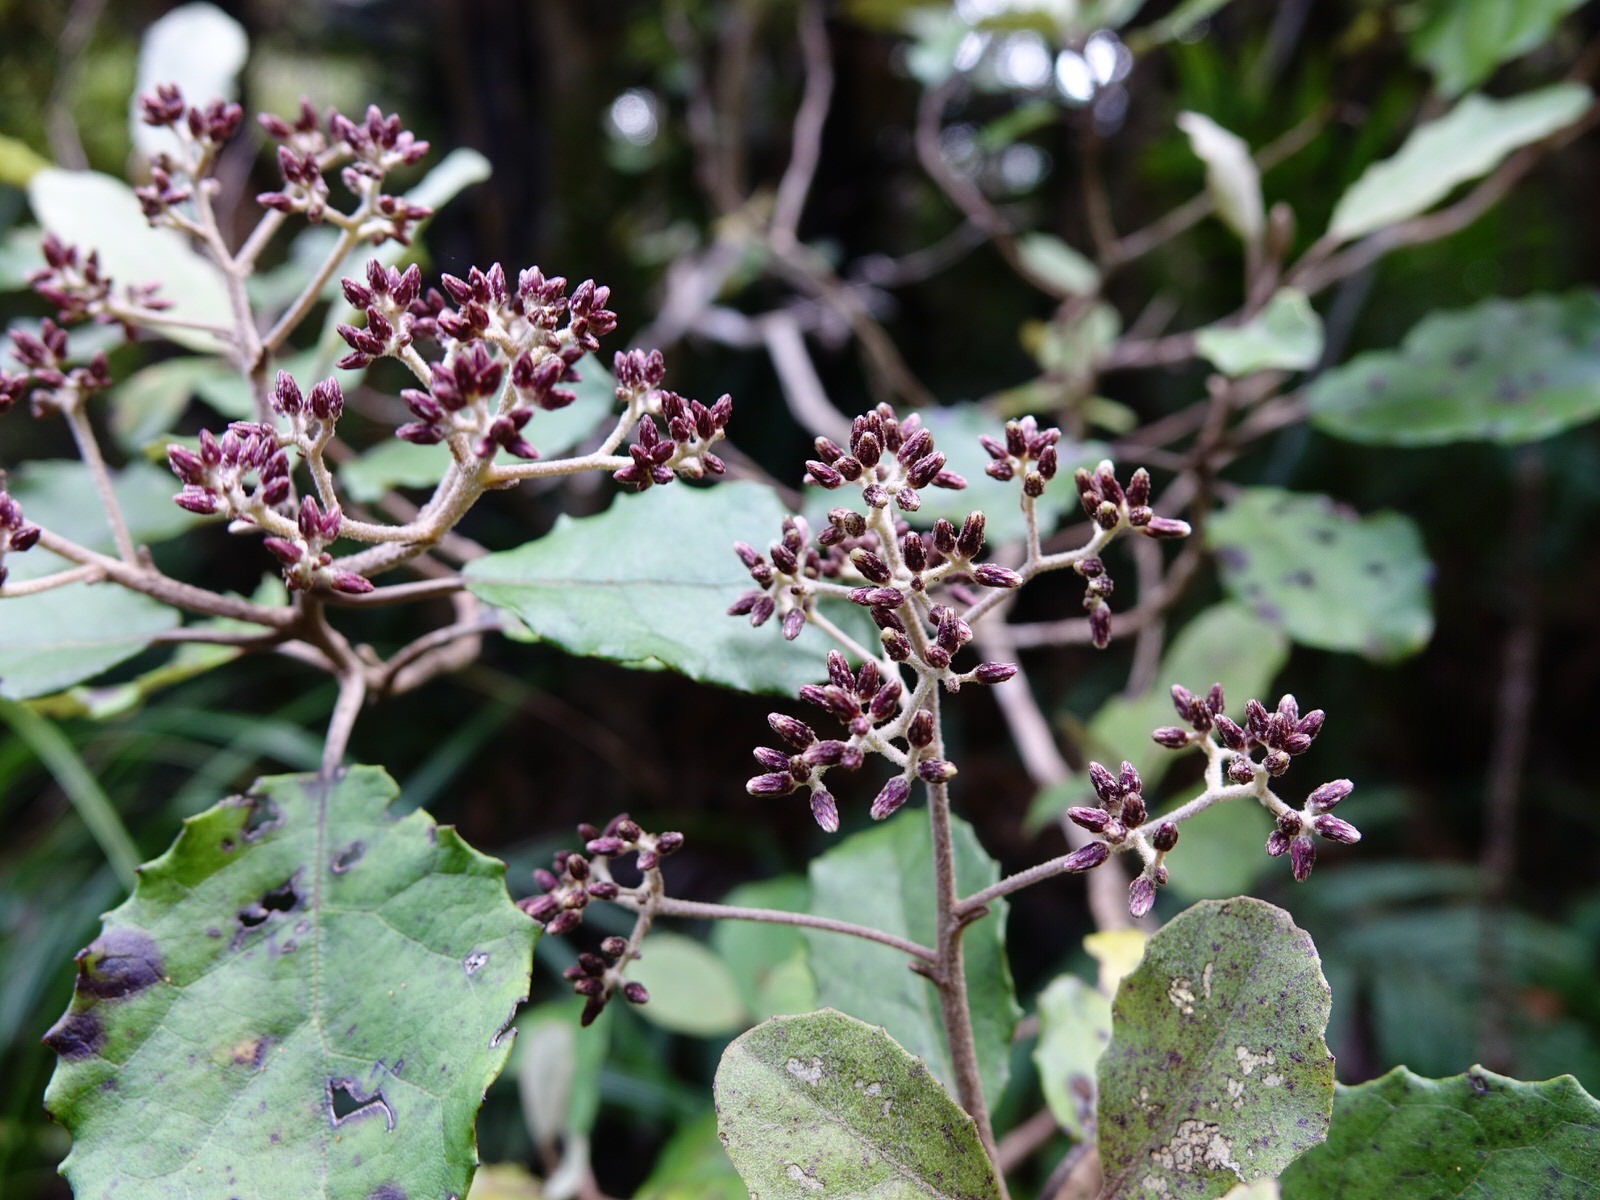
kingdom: Plantae
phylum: Tracheophyta
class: Magnoliopsida
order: Asterales
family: Asteraceae
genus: Olearia
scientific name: Olearia rani
